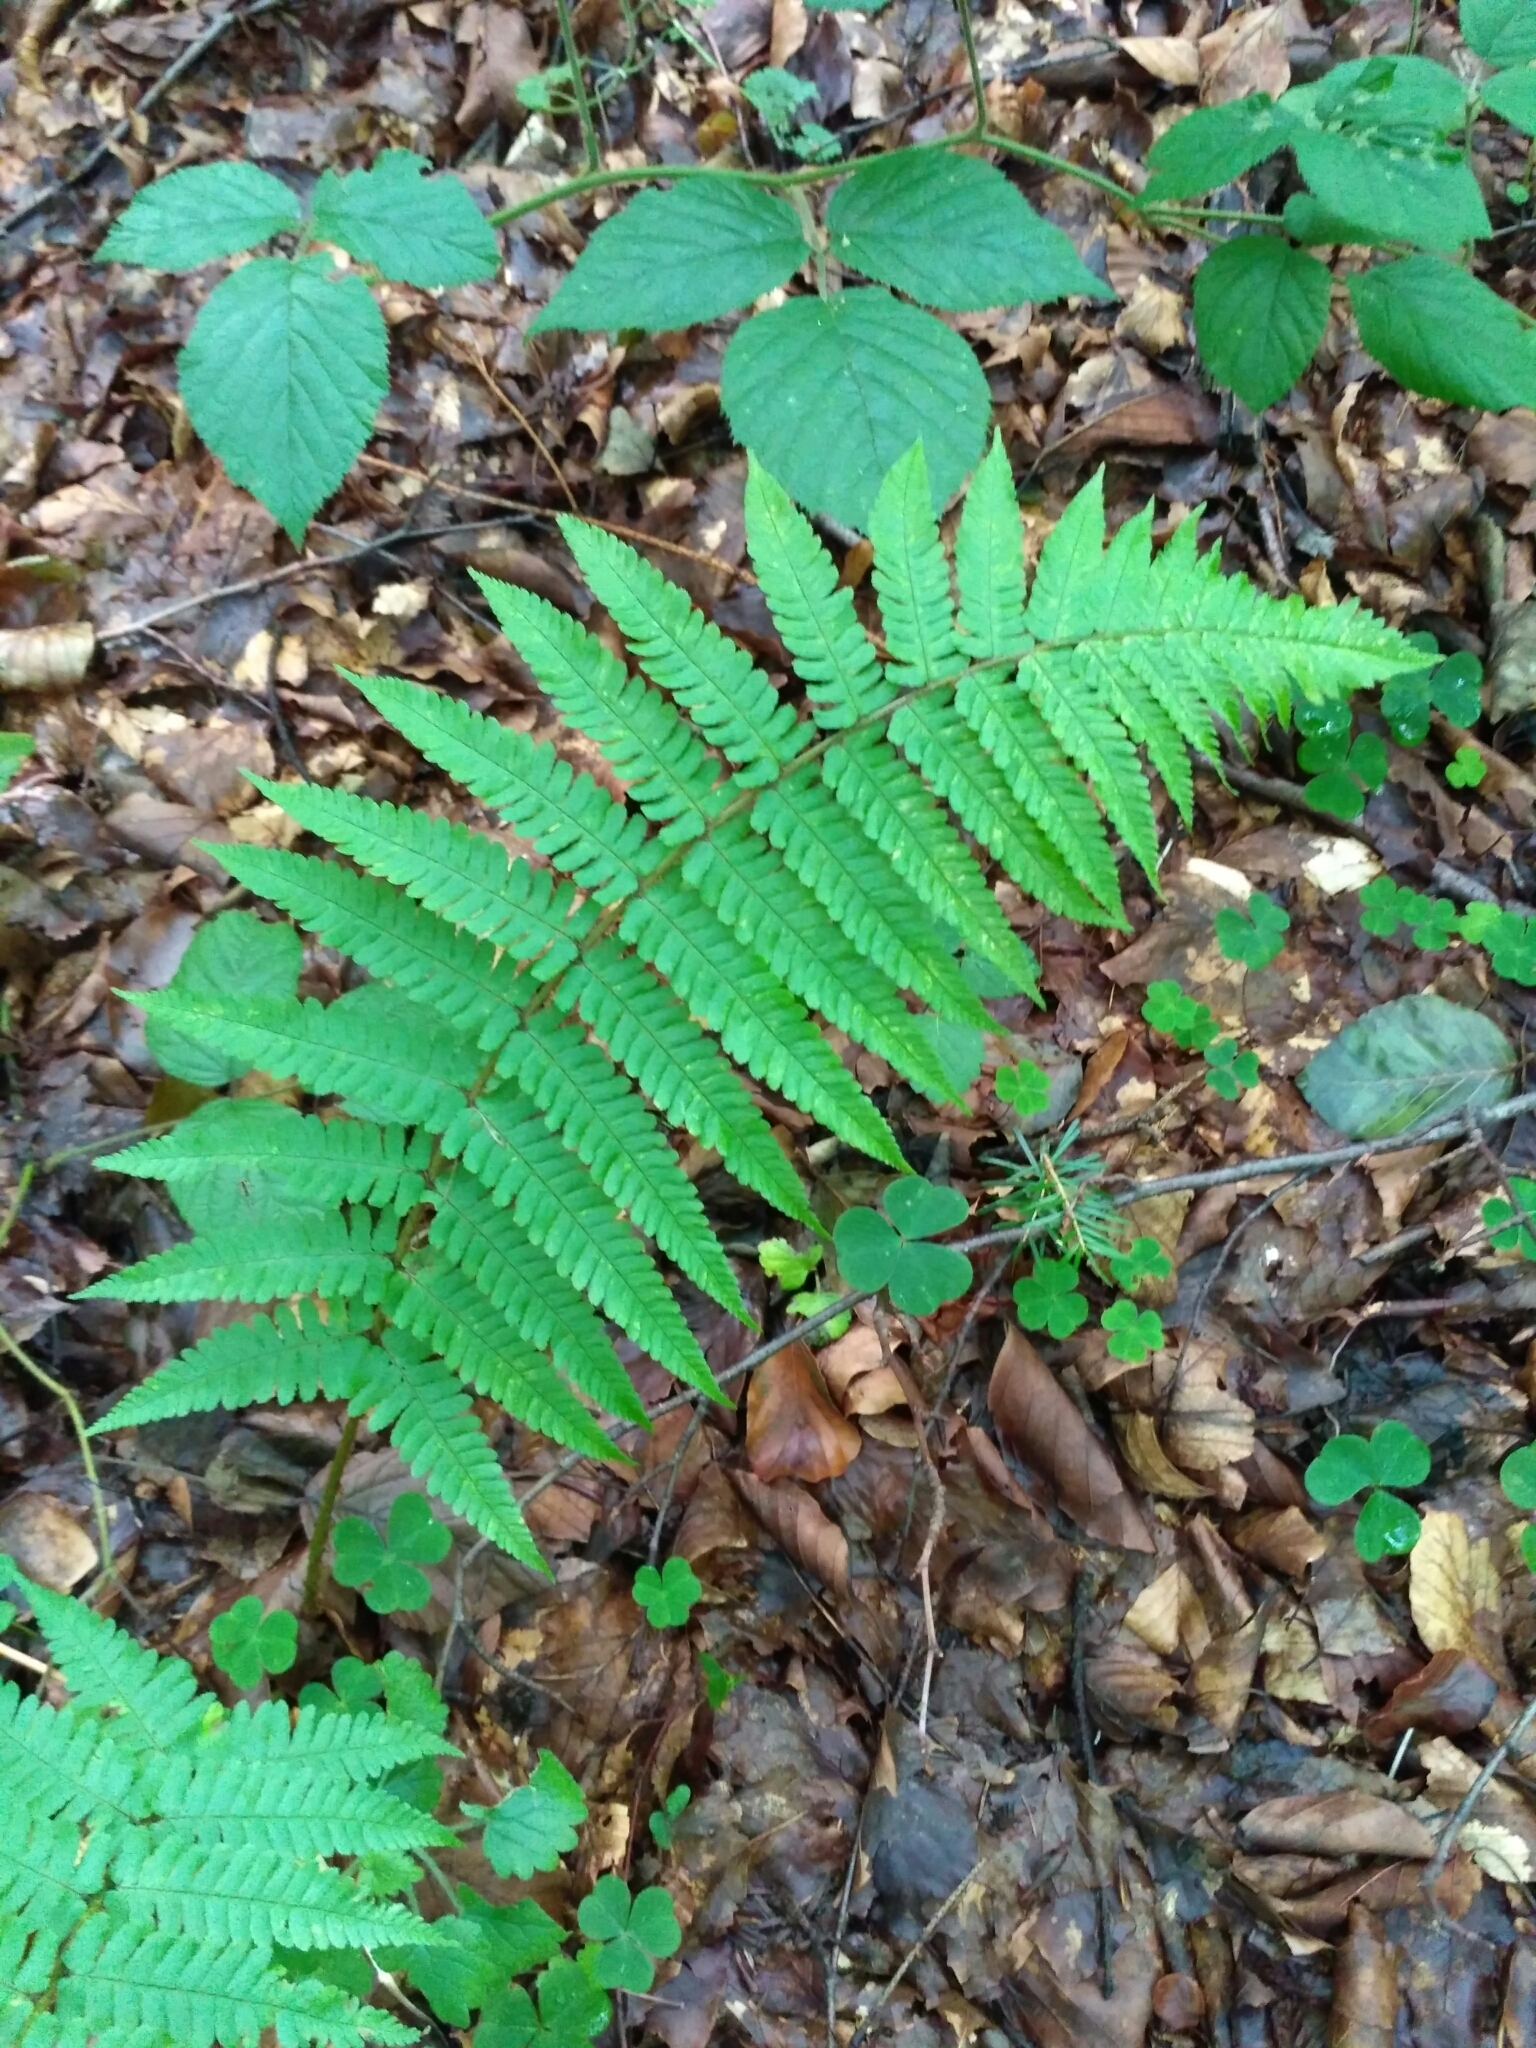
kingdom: Plantae
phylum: Tracheophyta
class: Polypodiopsida
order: Polypodiales
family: Dryopteridaceae
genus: Dryopteris
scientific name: Dryopteris filix-mas
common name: Male fern
